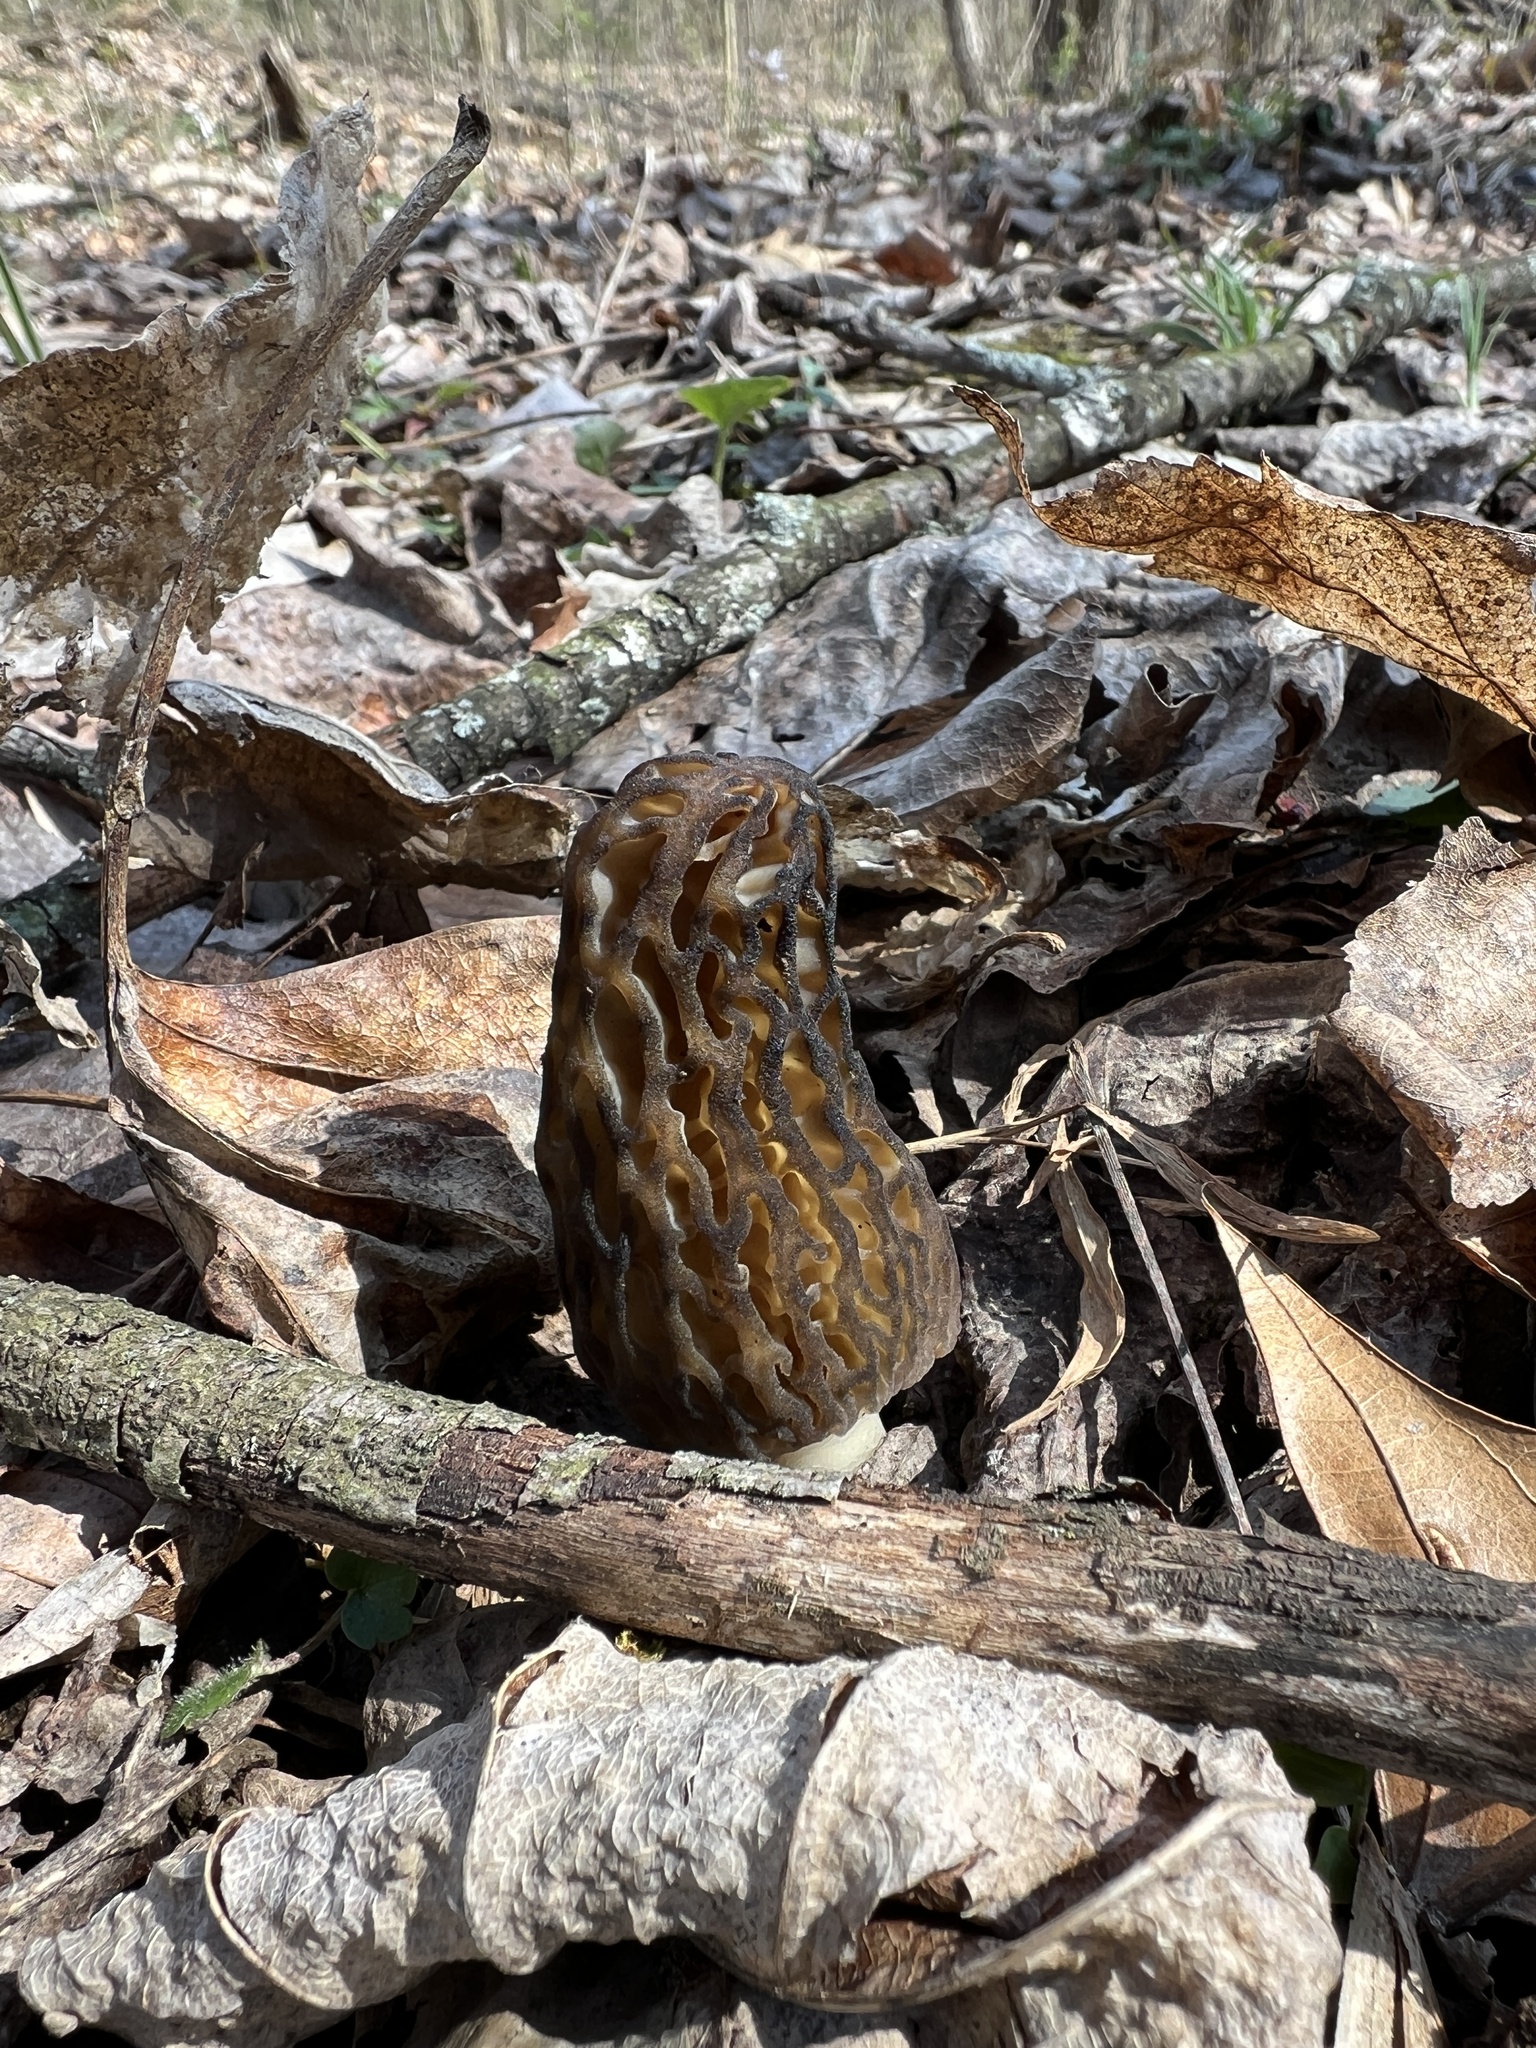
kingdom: Fungi
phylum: Ascomycota
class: Pezizomycetes
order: Pezizales
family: Morchellaceae
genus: Morchella
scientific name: Morchella angusticeps
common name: Black morel
